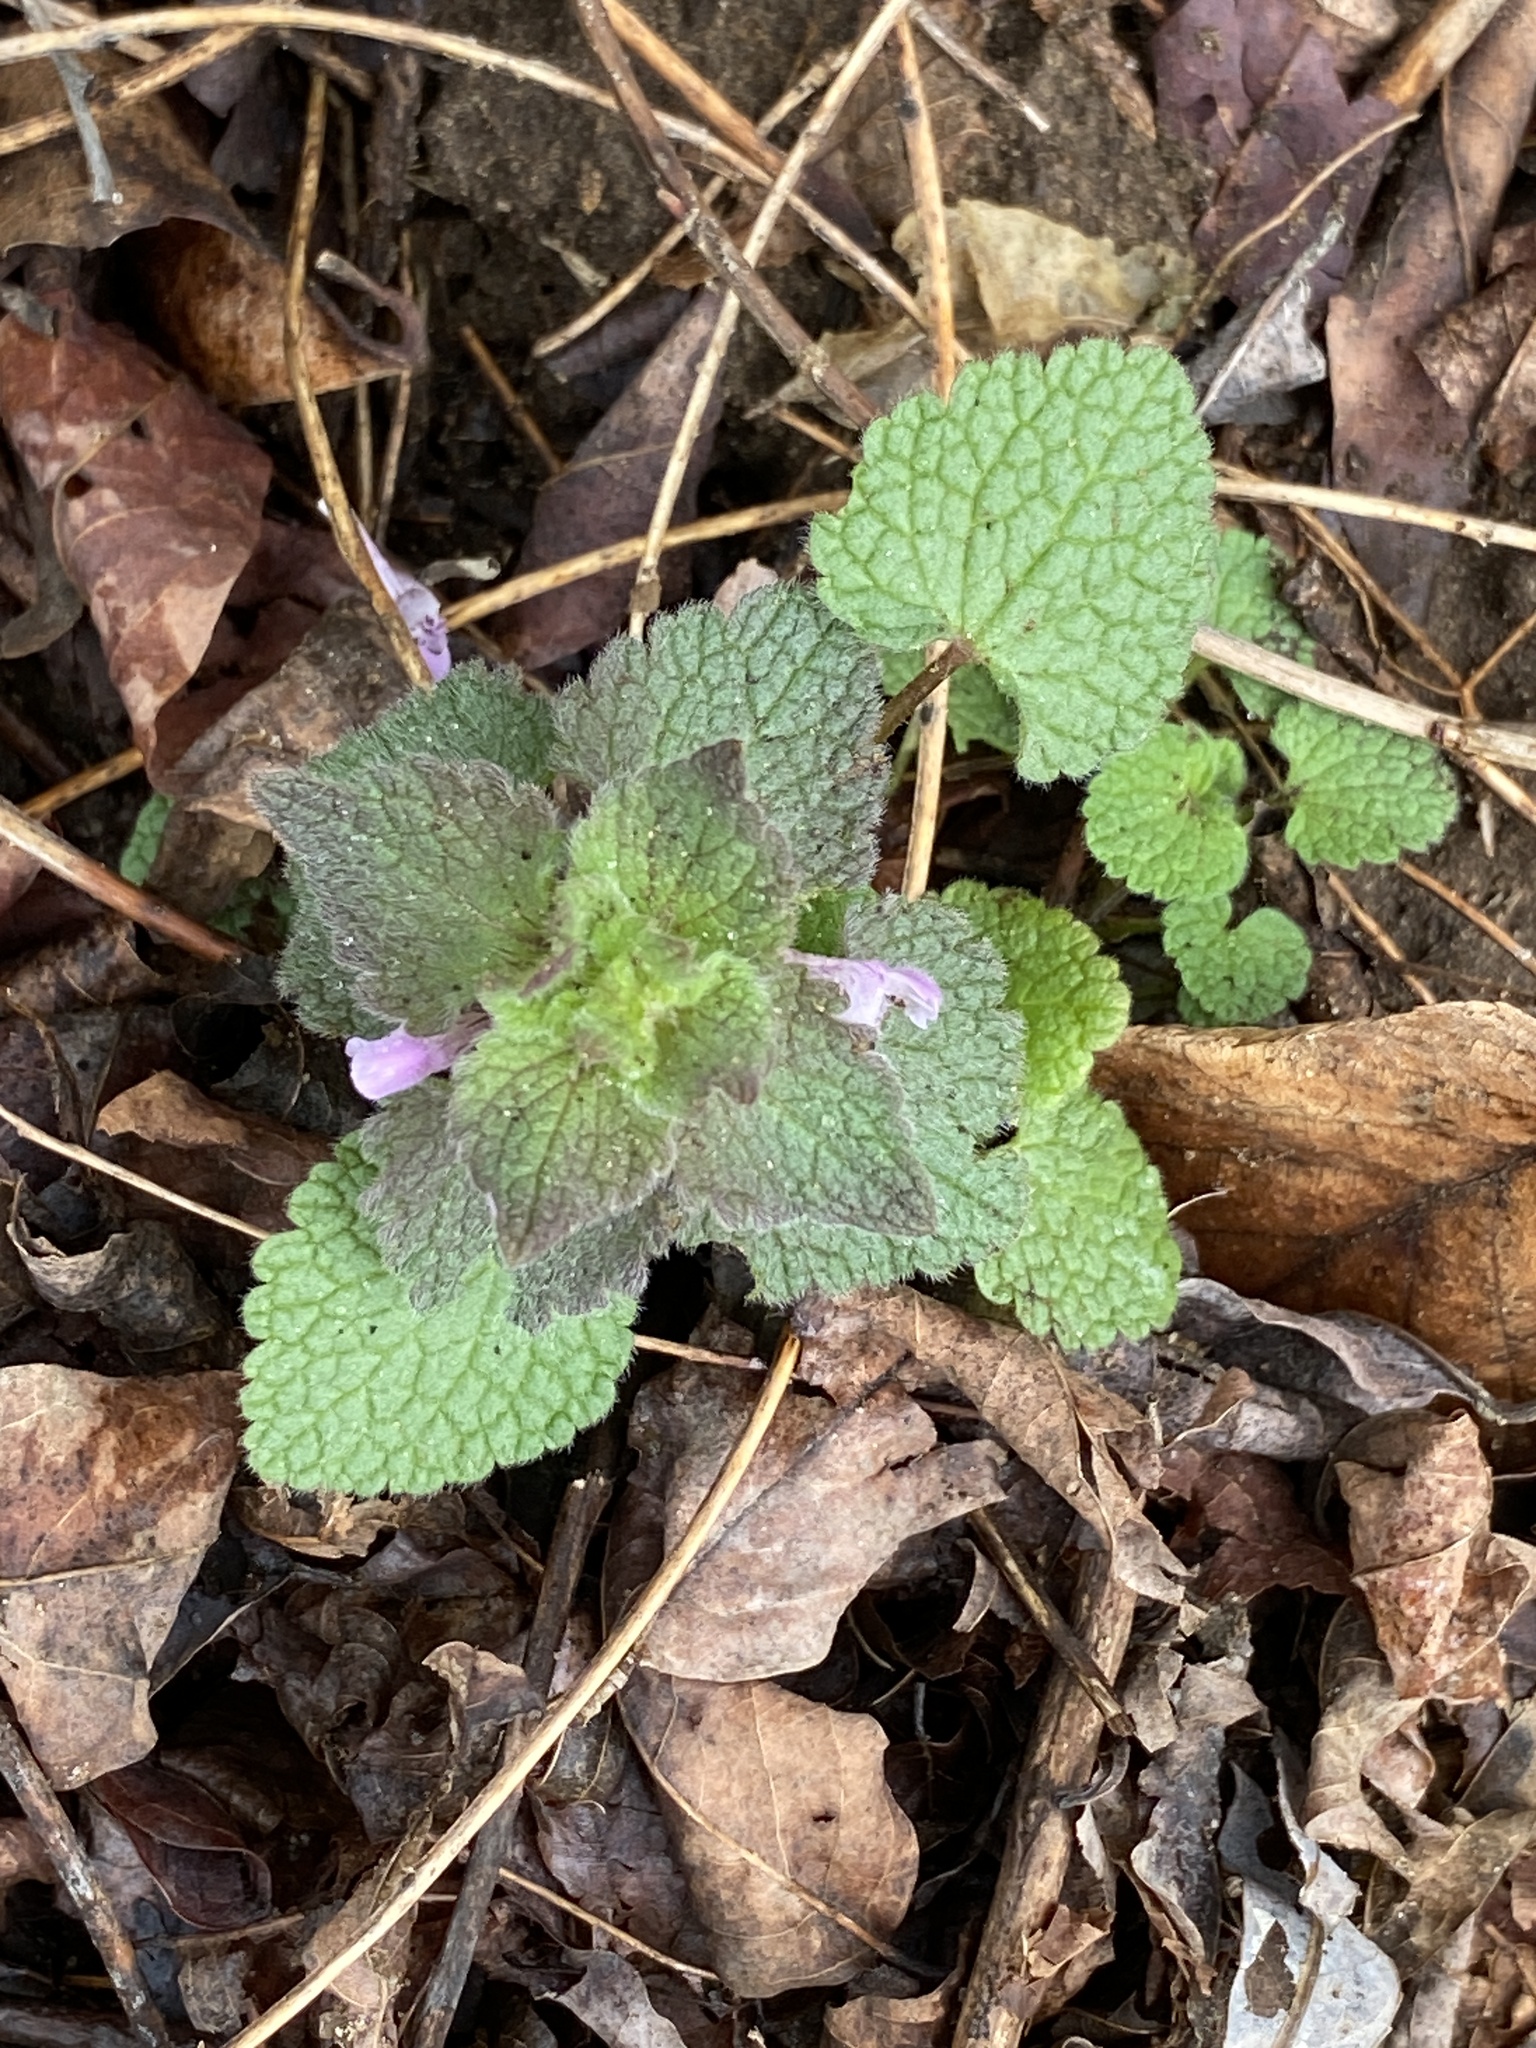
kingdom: Plantae
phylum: Tracheophyta
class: Magnoliopsida
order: Lamiales
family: Lamiaceae
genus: Lamium
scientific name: Lamium purpureum
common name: Red dead-nettle
